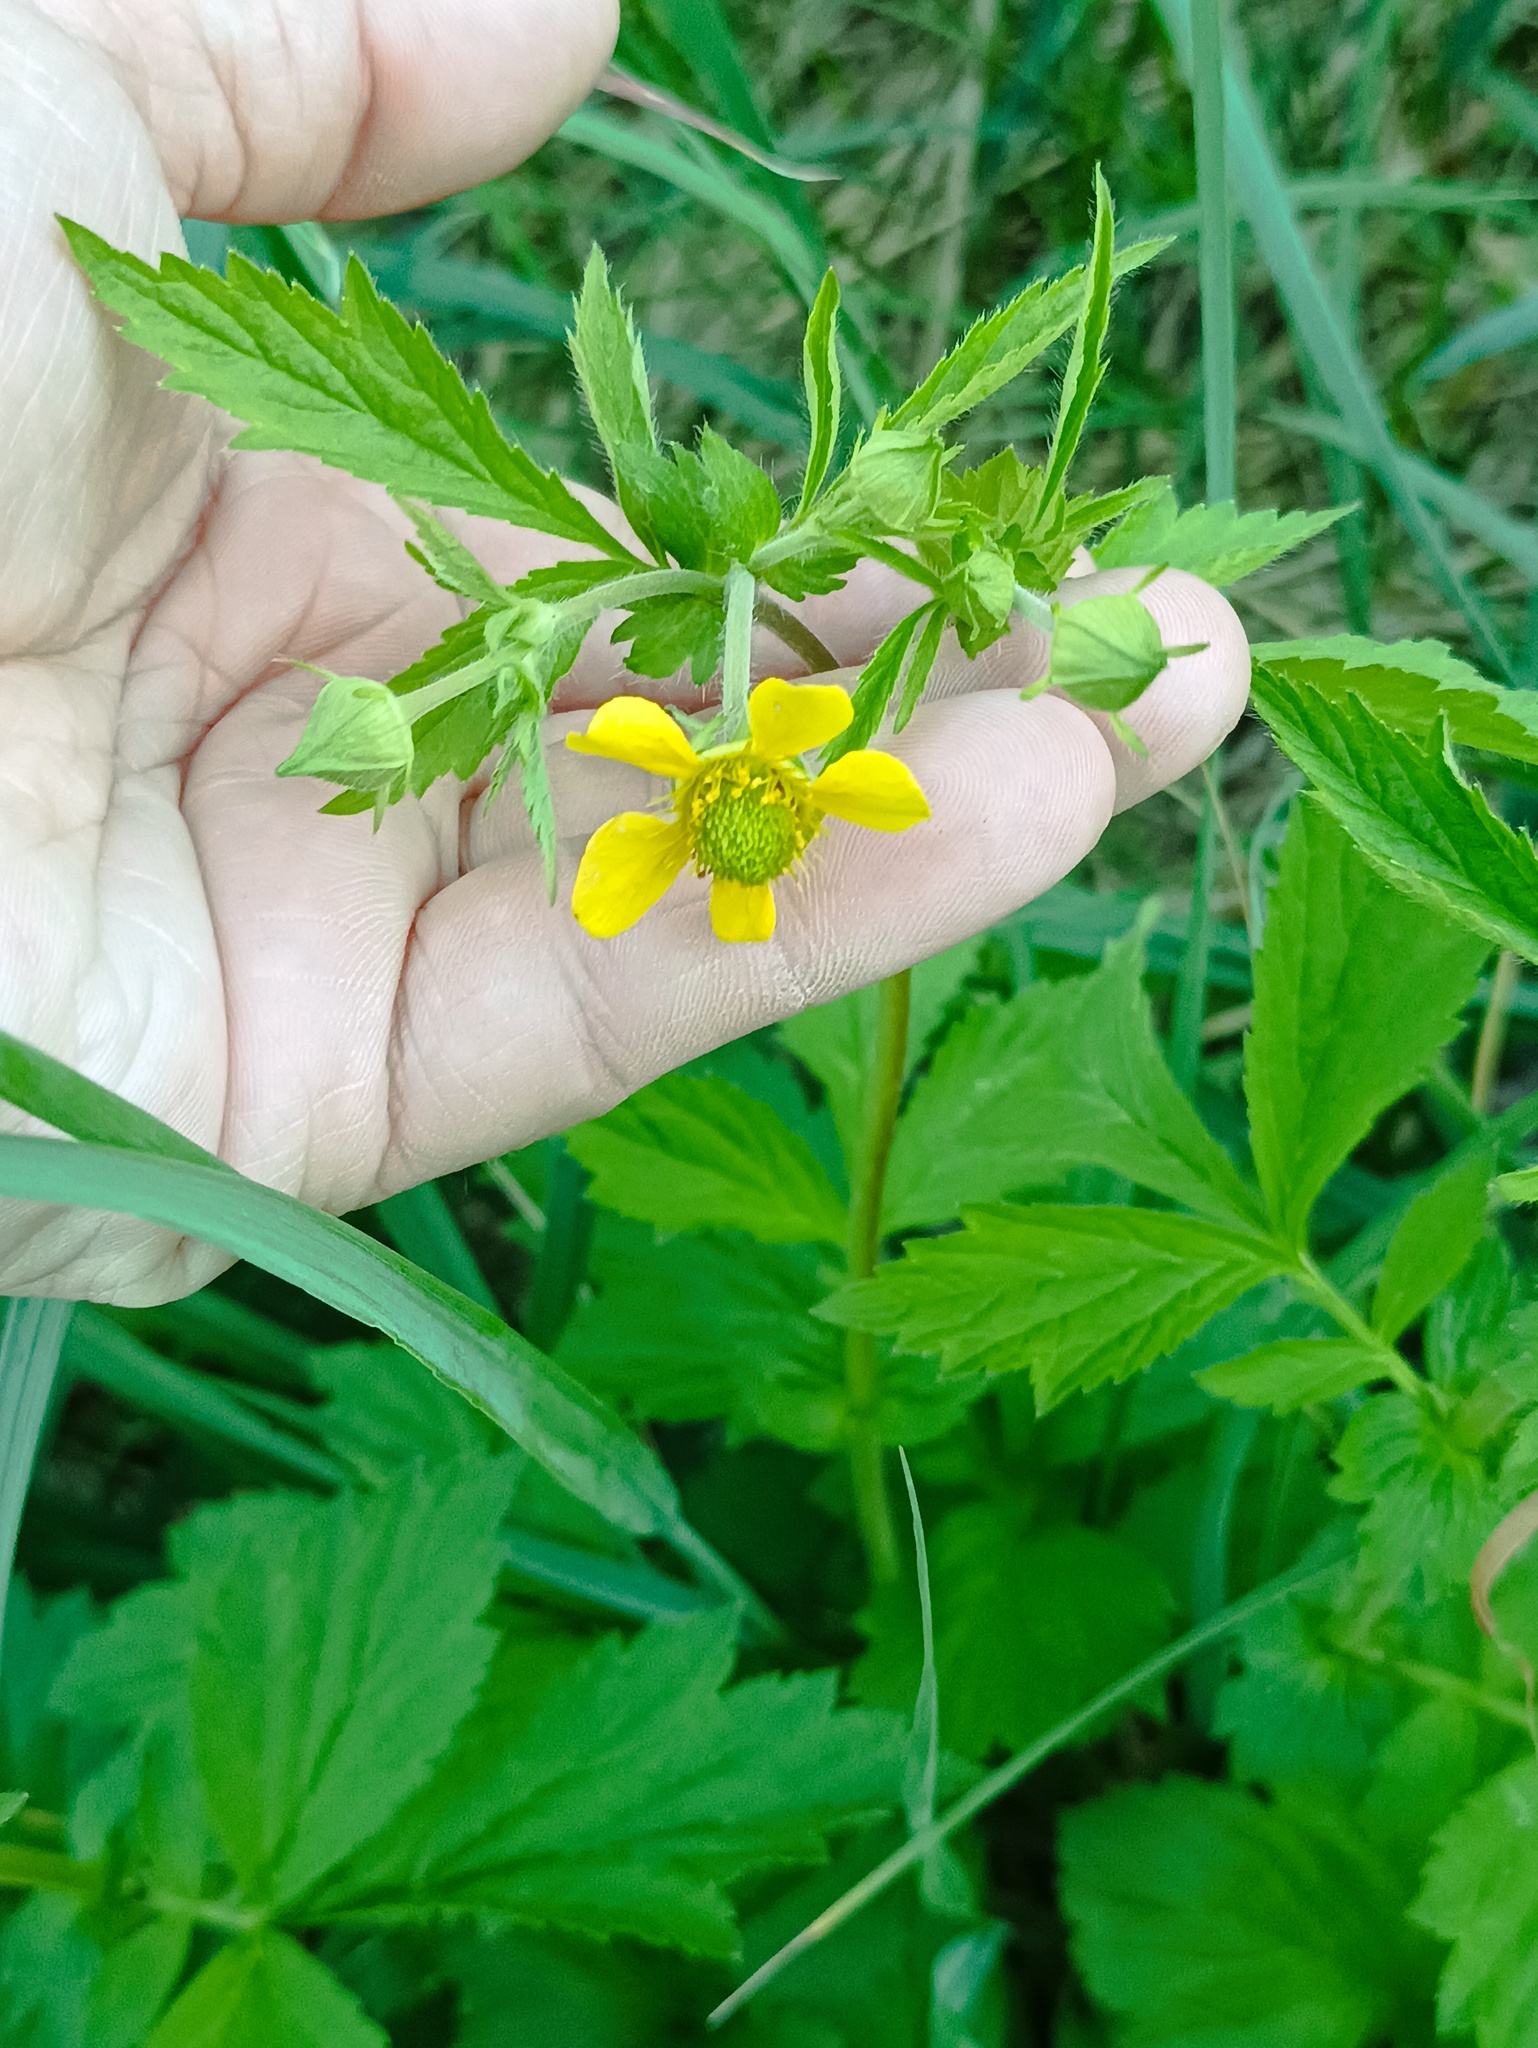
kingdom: Plantae
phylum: Tracheophyta
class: Magnoliopsida
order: Rosales
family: Rosaceae
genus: Geum
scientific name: Geum aleppicum
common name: Yellow avens
